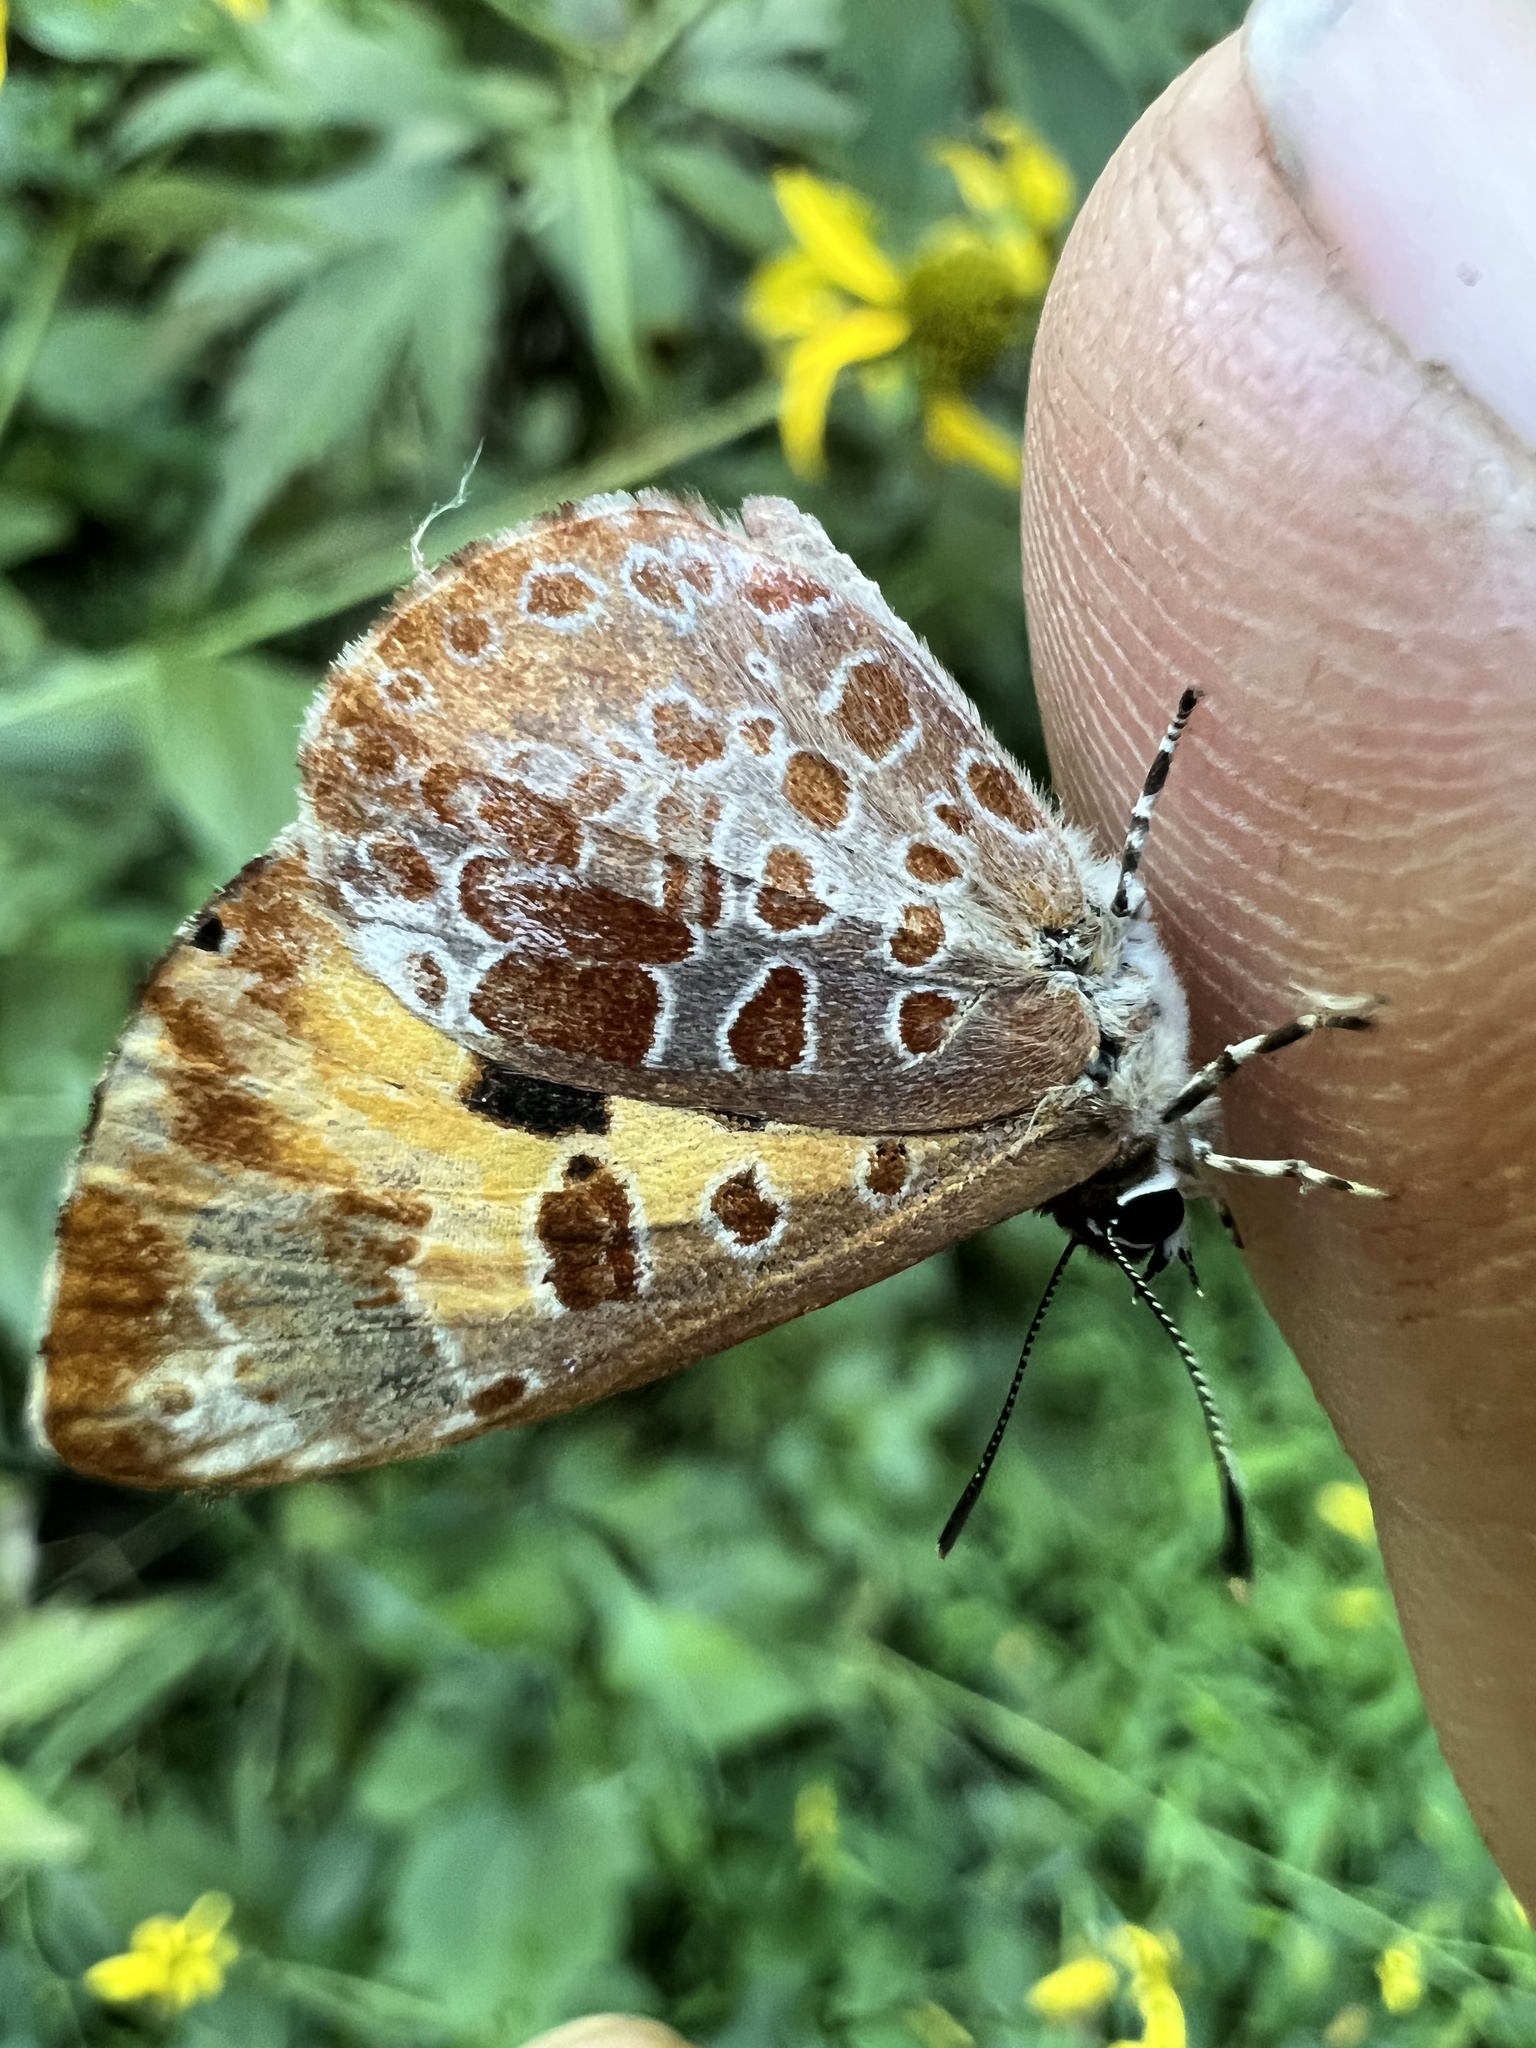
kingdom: Animalia
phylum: Arthropoda
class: Insecta
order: Lepidoptera
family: Lycaenidae
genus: Feniseca
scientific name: Feniseca tarquinius
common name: Harvester
